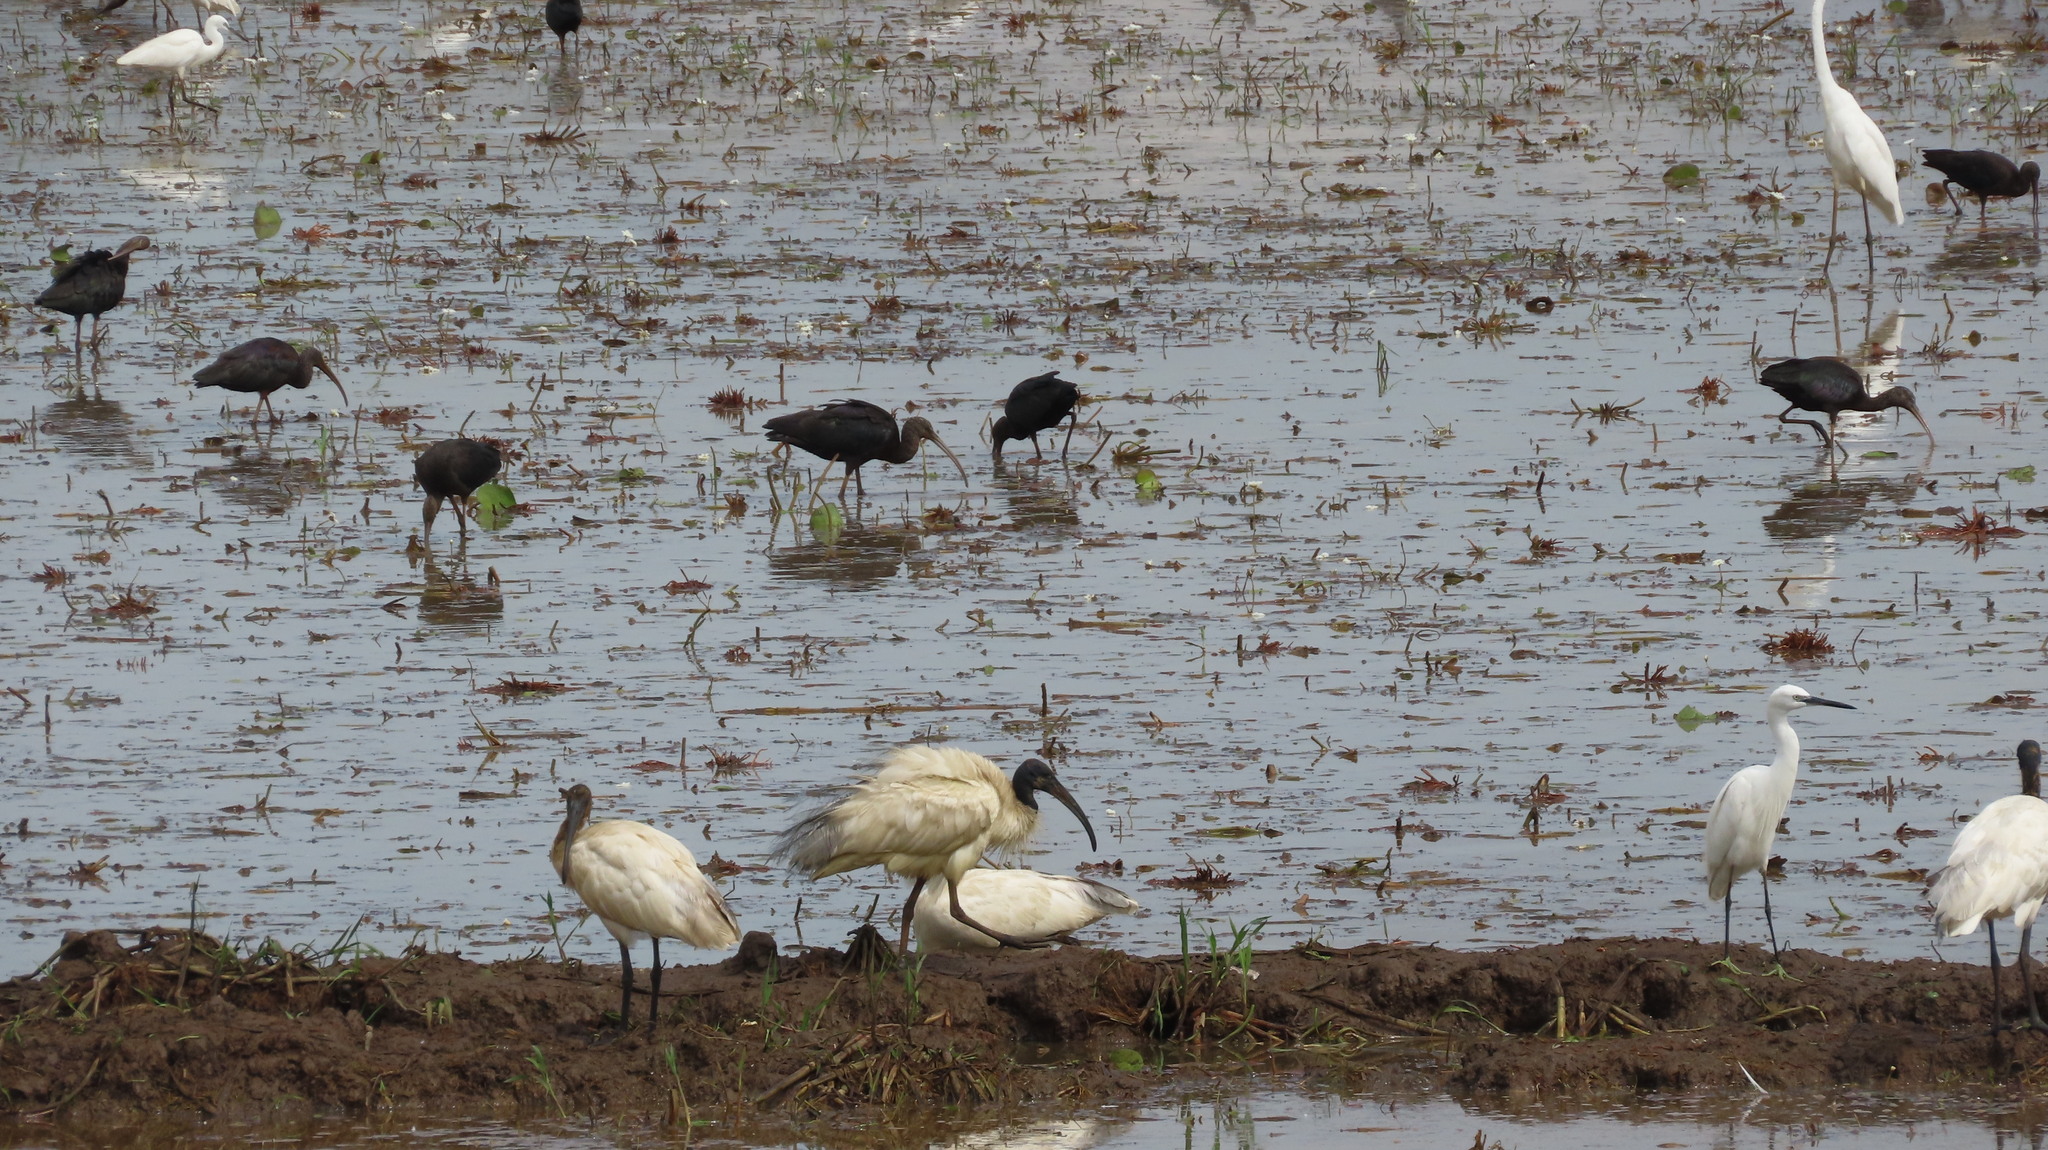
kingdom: Animalia
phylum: Chordata
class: Aves
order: Pelecaniformes
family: Ardeidae
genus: Egretta
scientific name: Egretta garzetta
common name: Little egret
